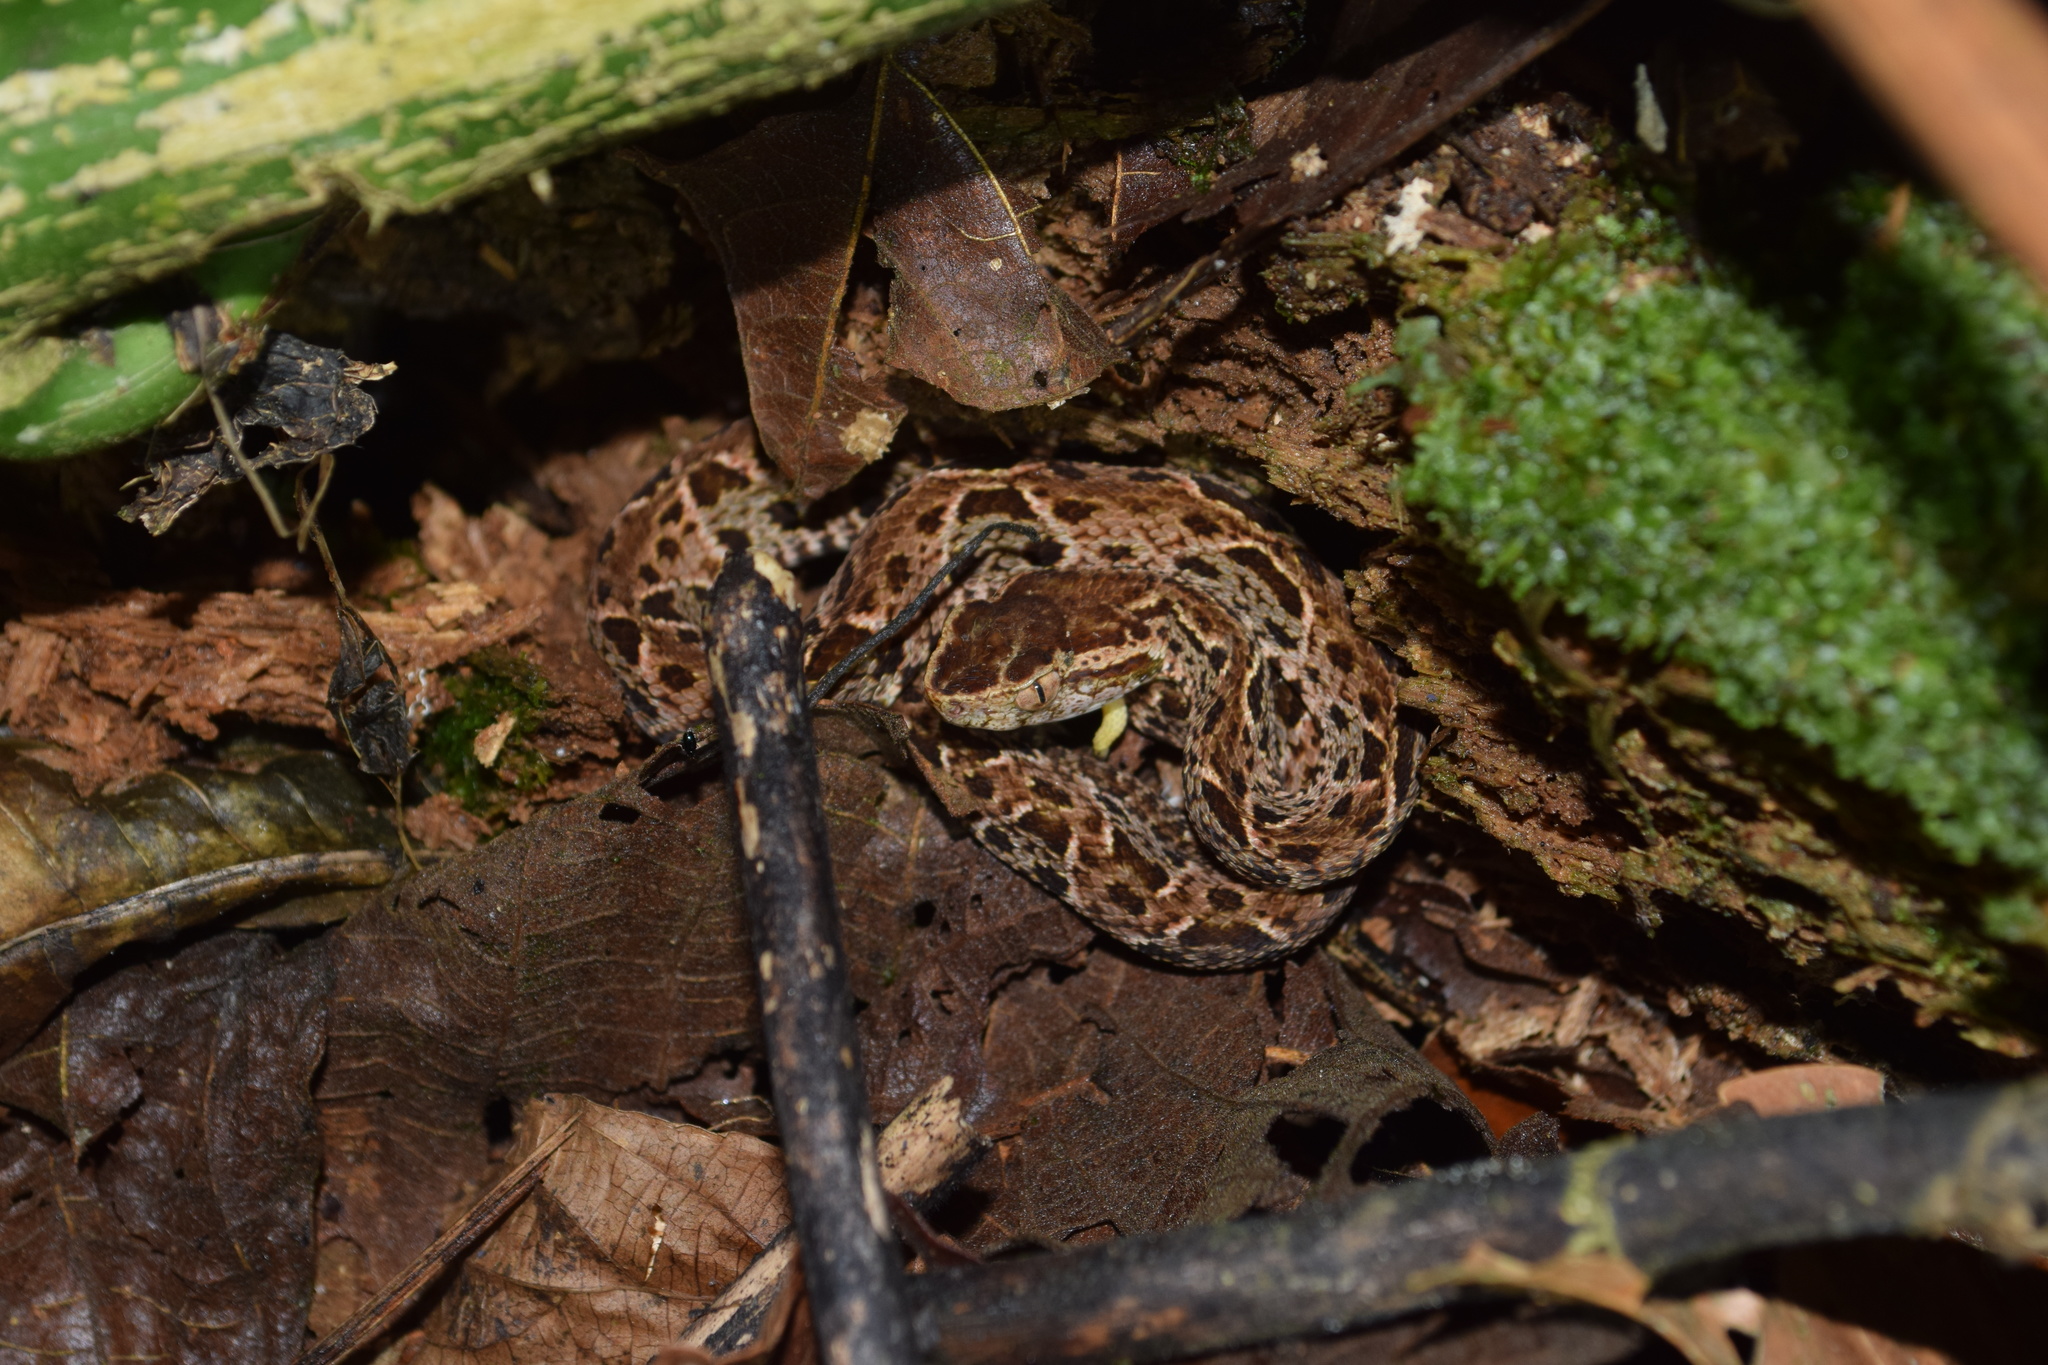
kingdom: Animalia
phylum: Chordata
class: Squamata
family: Viperidae
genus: Bothrops
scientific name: Bothrops asper
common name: Terciopelo
